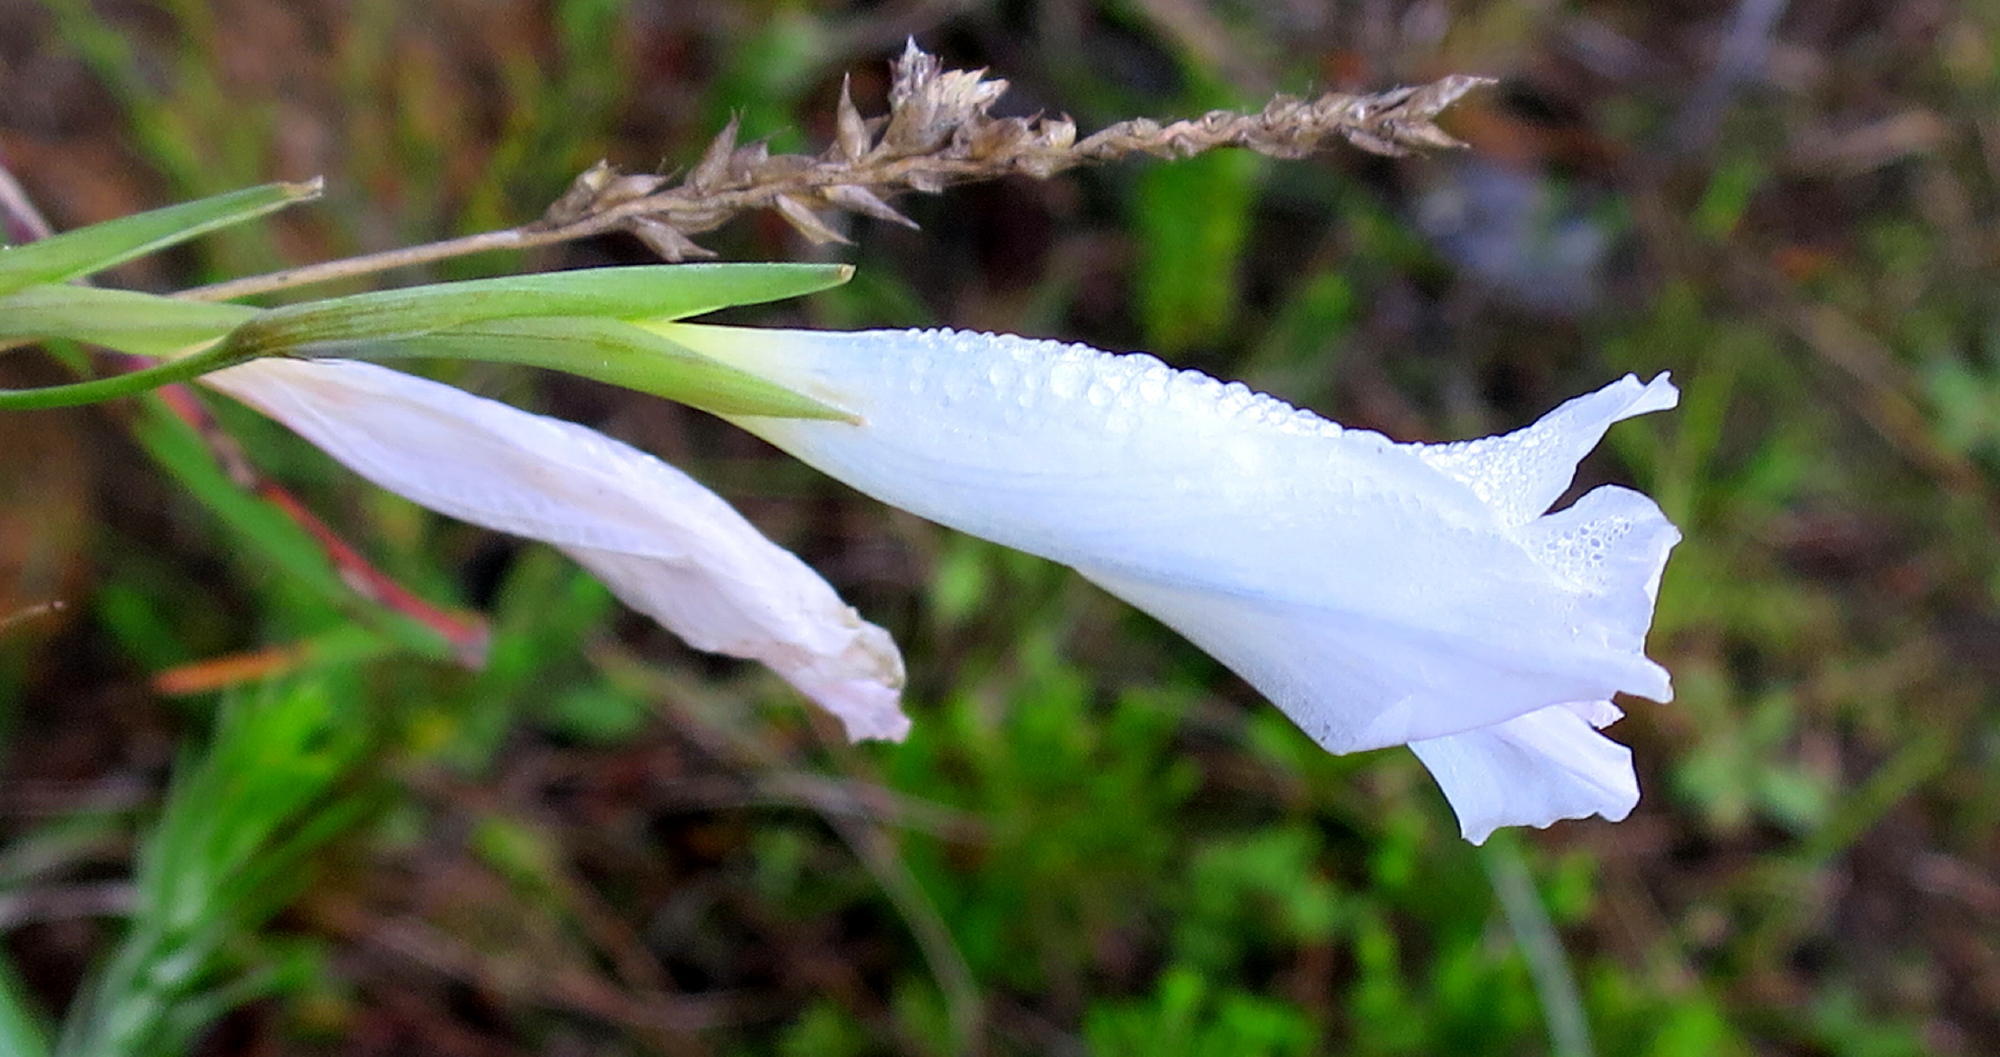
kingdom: Plantae
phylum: Tracheophyta
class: Liliopsida
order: Asparagales
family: Iridaceae
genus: Gladiolus
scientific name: Gladiolus vaginatus
